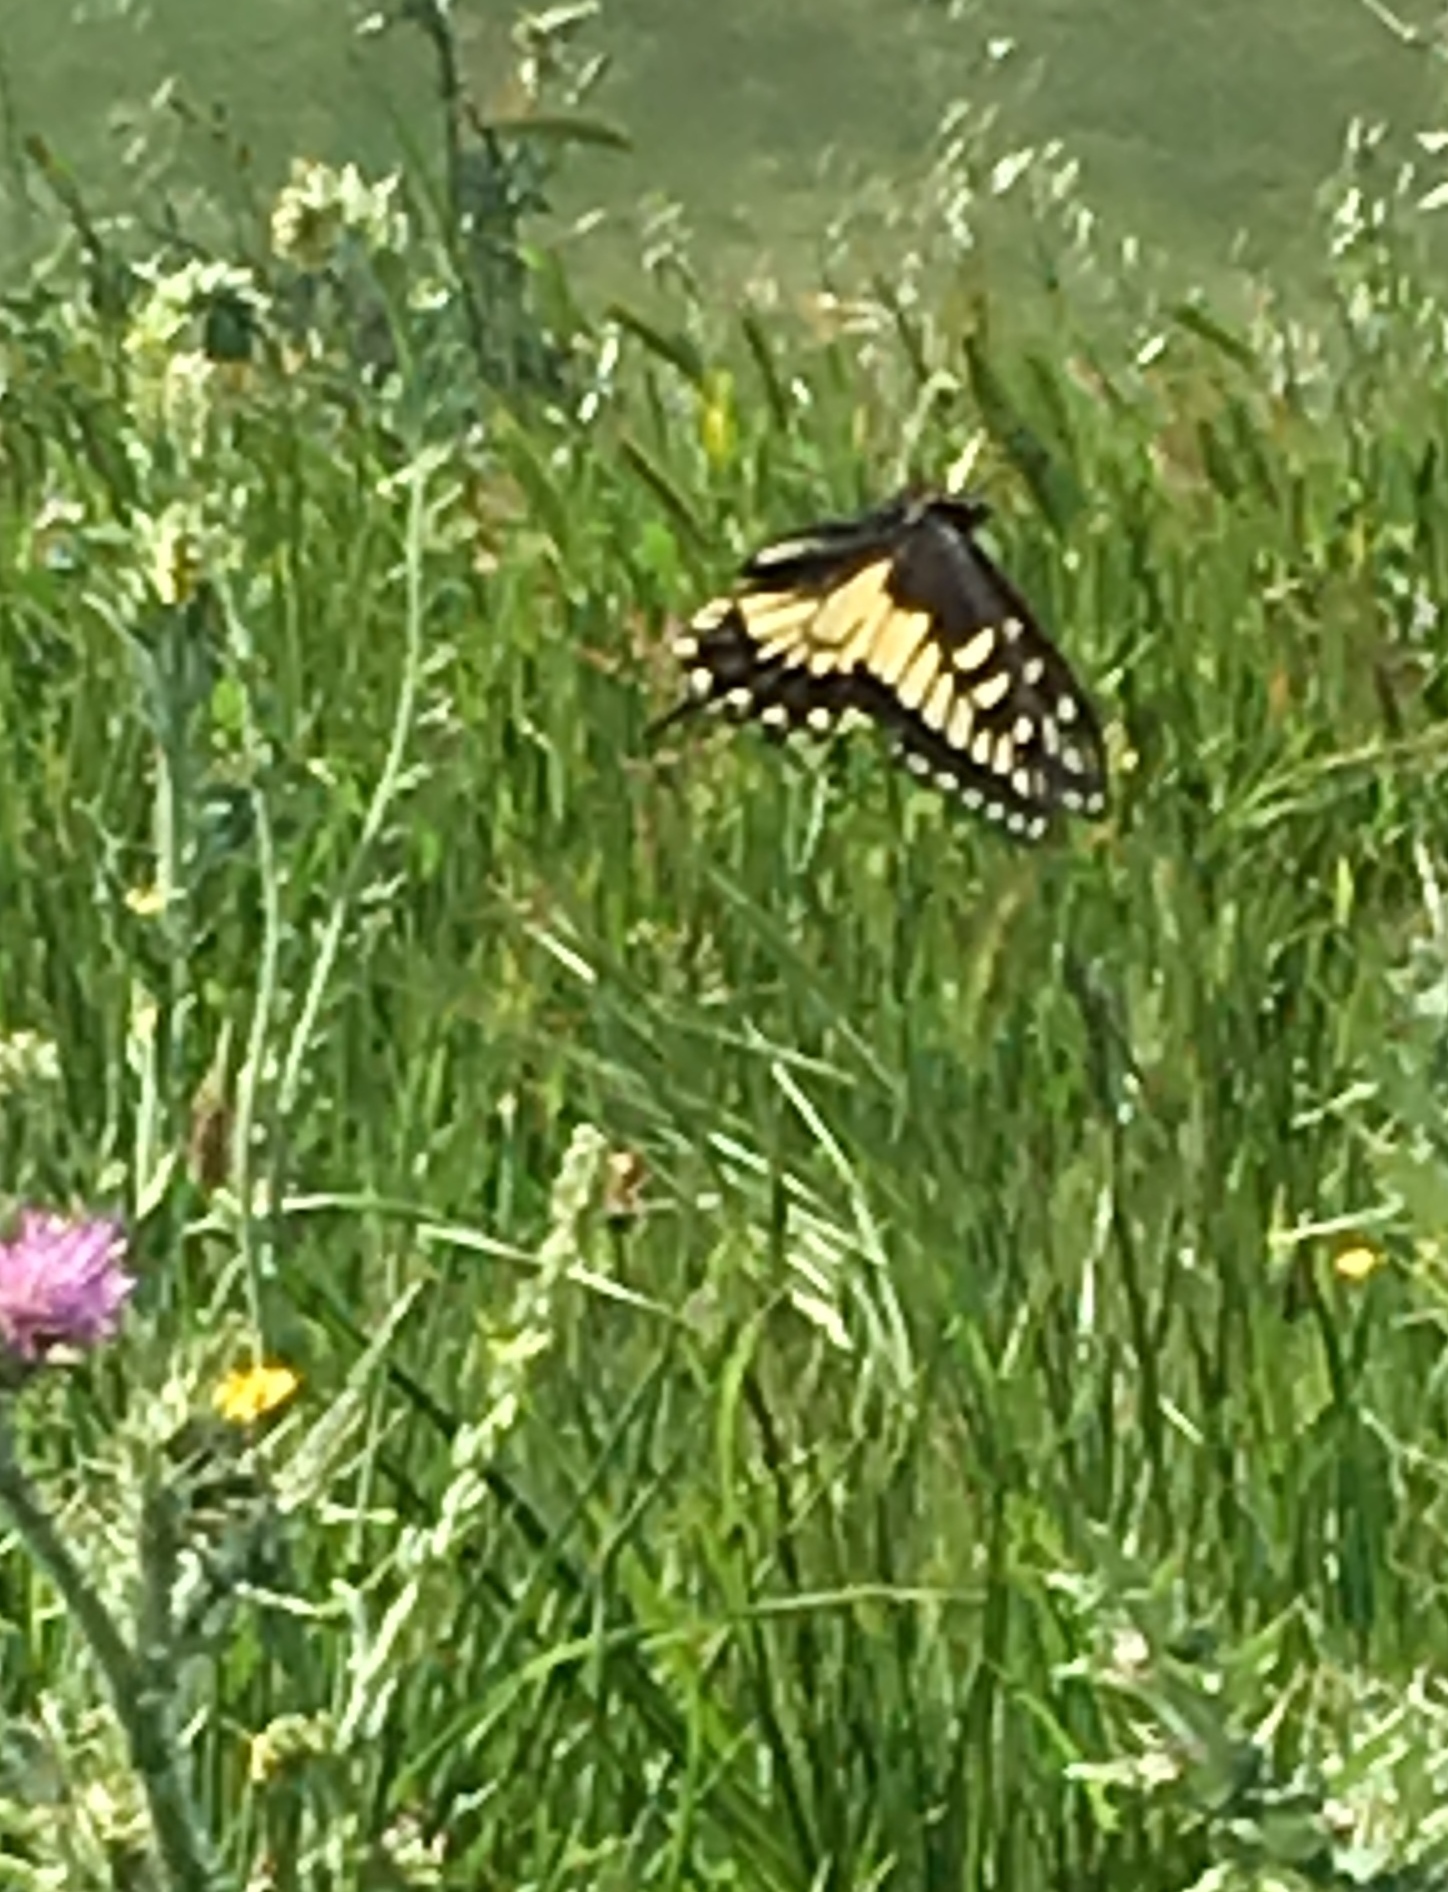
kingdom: Animalia
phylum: Arthropoda
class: Insecta
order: Lepidoptera
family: Papilionidae
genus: Papilio
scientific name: Papilio zelicaon
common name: Anise swallowtail
